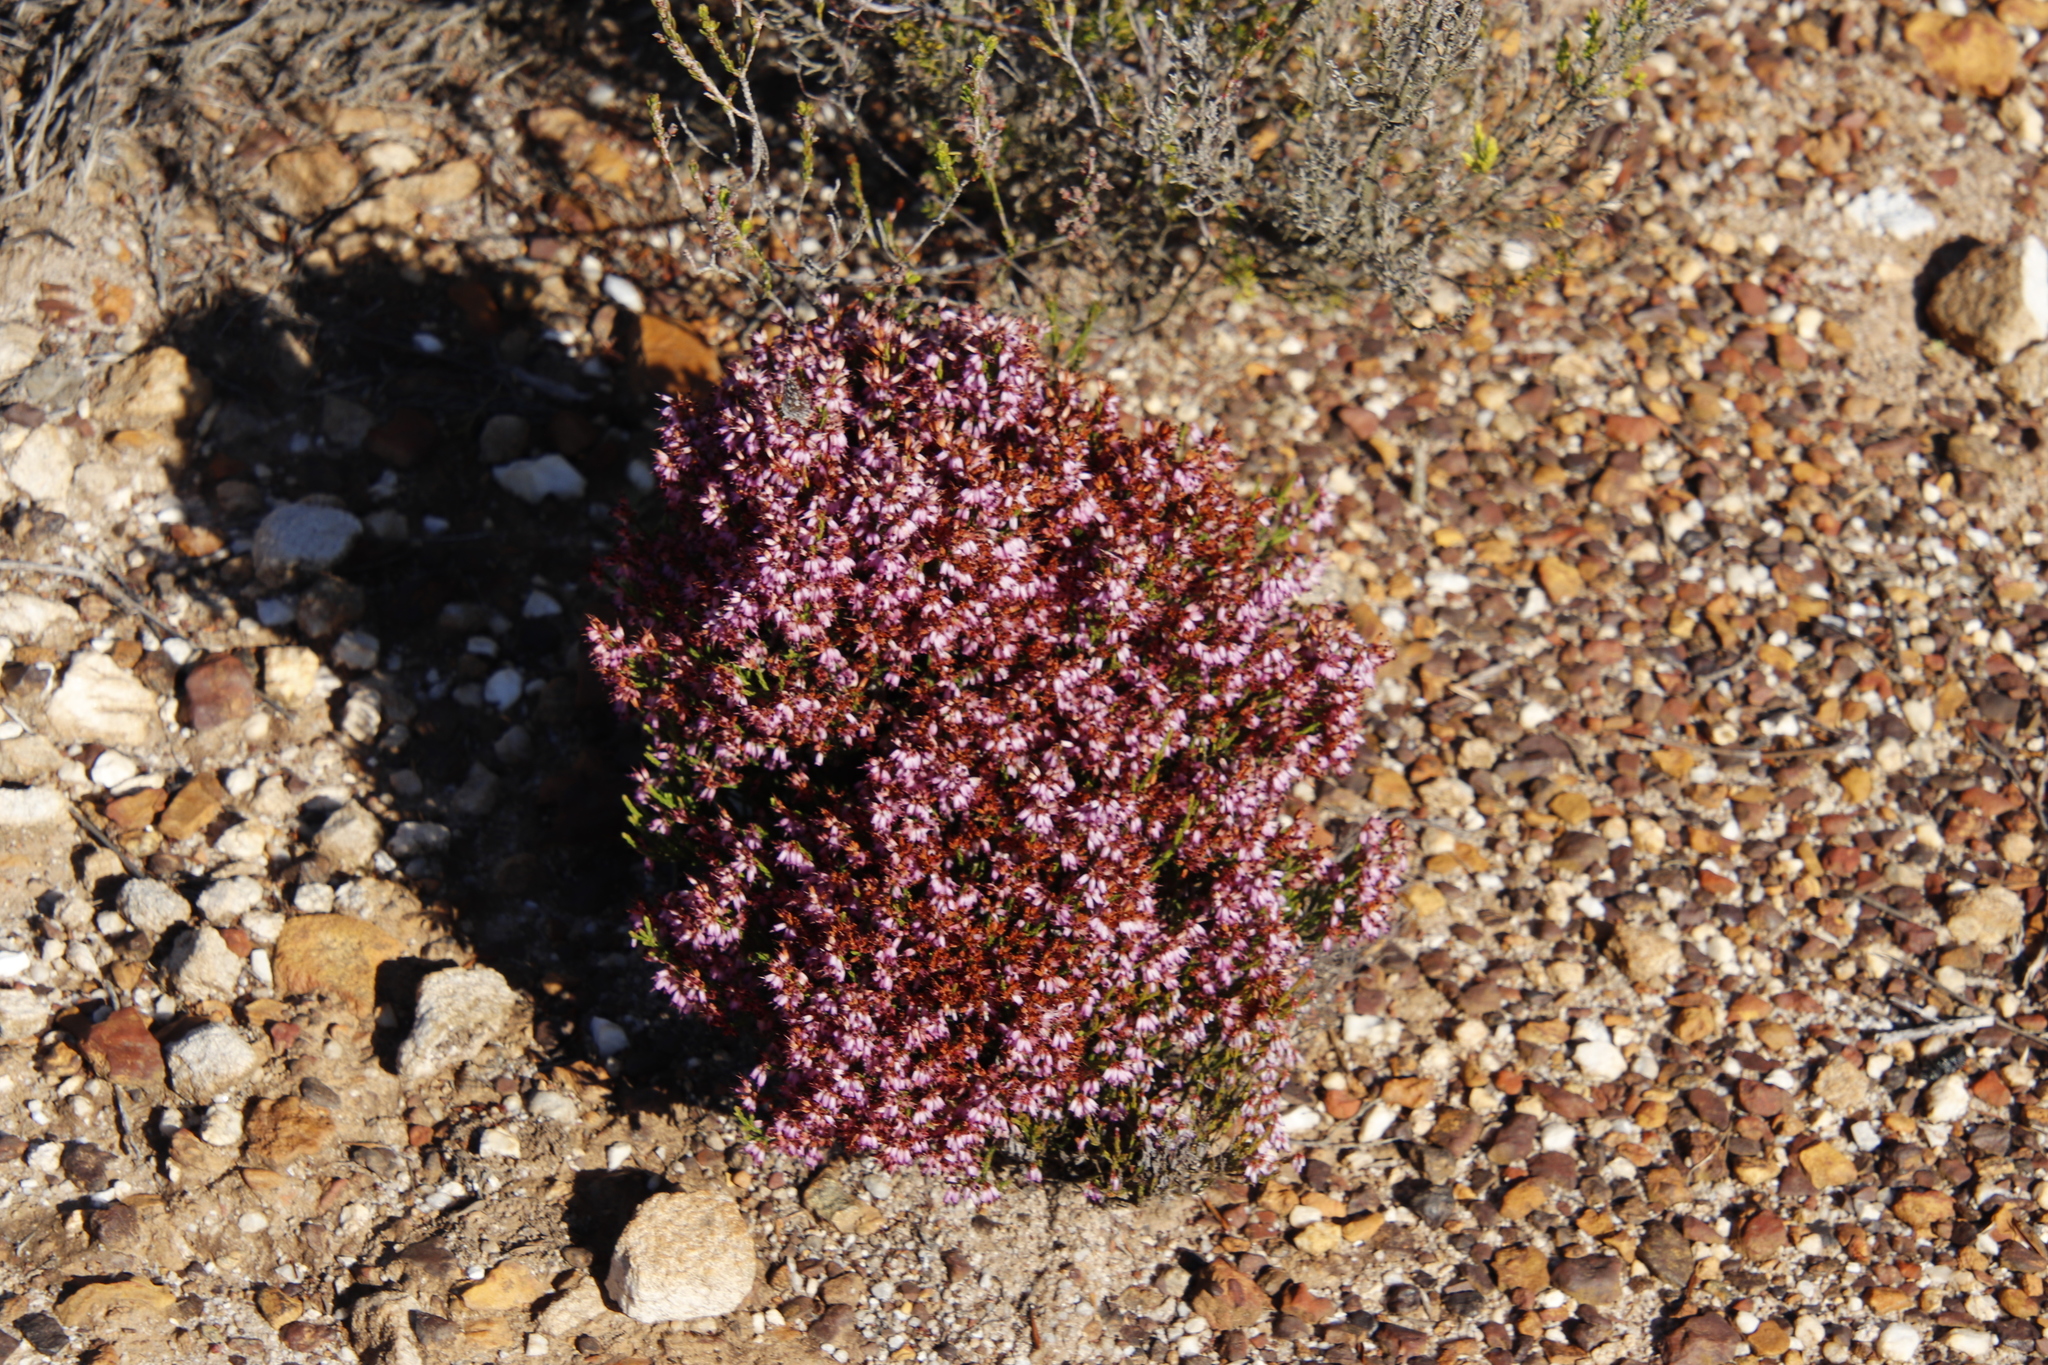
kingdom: Plantae
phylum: Tracheophyta
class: Magnoliopsida
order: Ericales
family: Ericaceae
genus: Erica
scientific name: Erica equisetifolia
